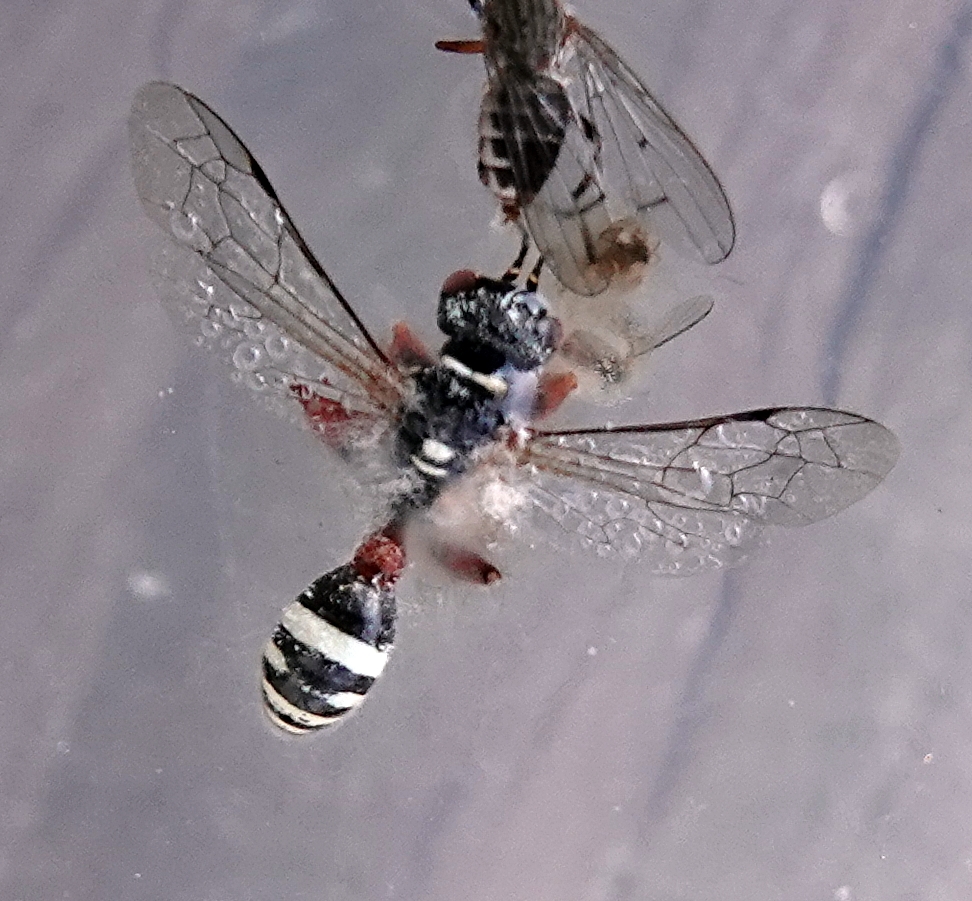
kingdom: Animalia
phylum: Arthropoda
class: Insecta
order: Hymenoptera
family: Crabronidae
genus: Mellinus
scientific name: Mellinus rufinodus
